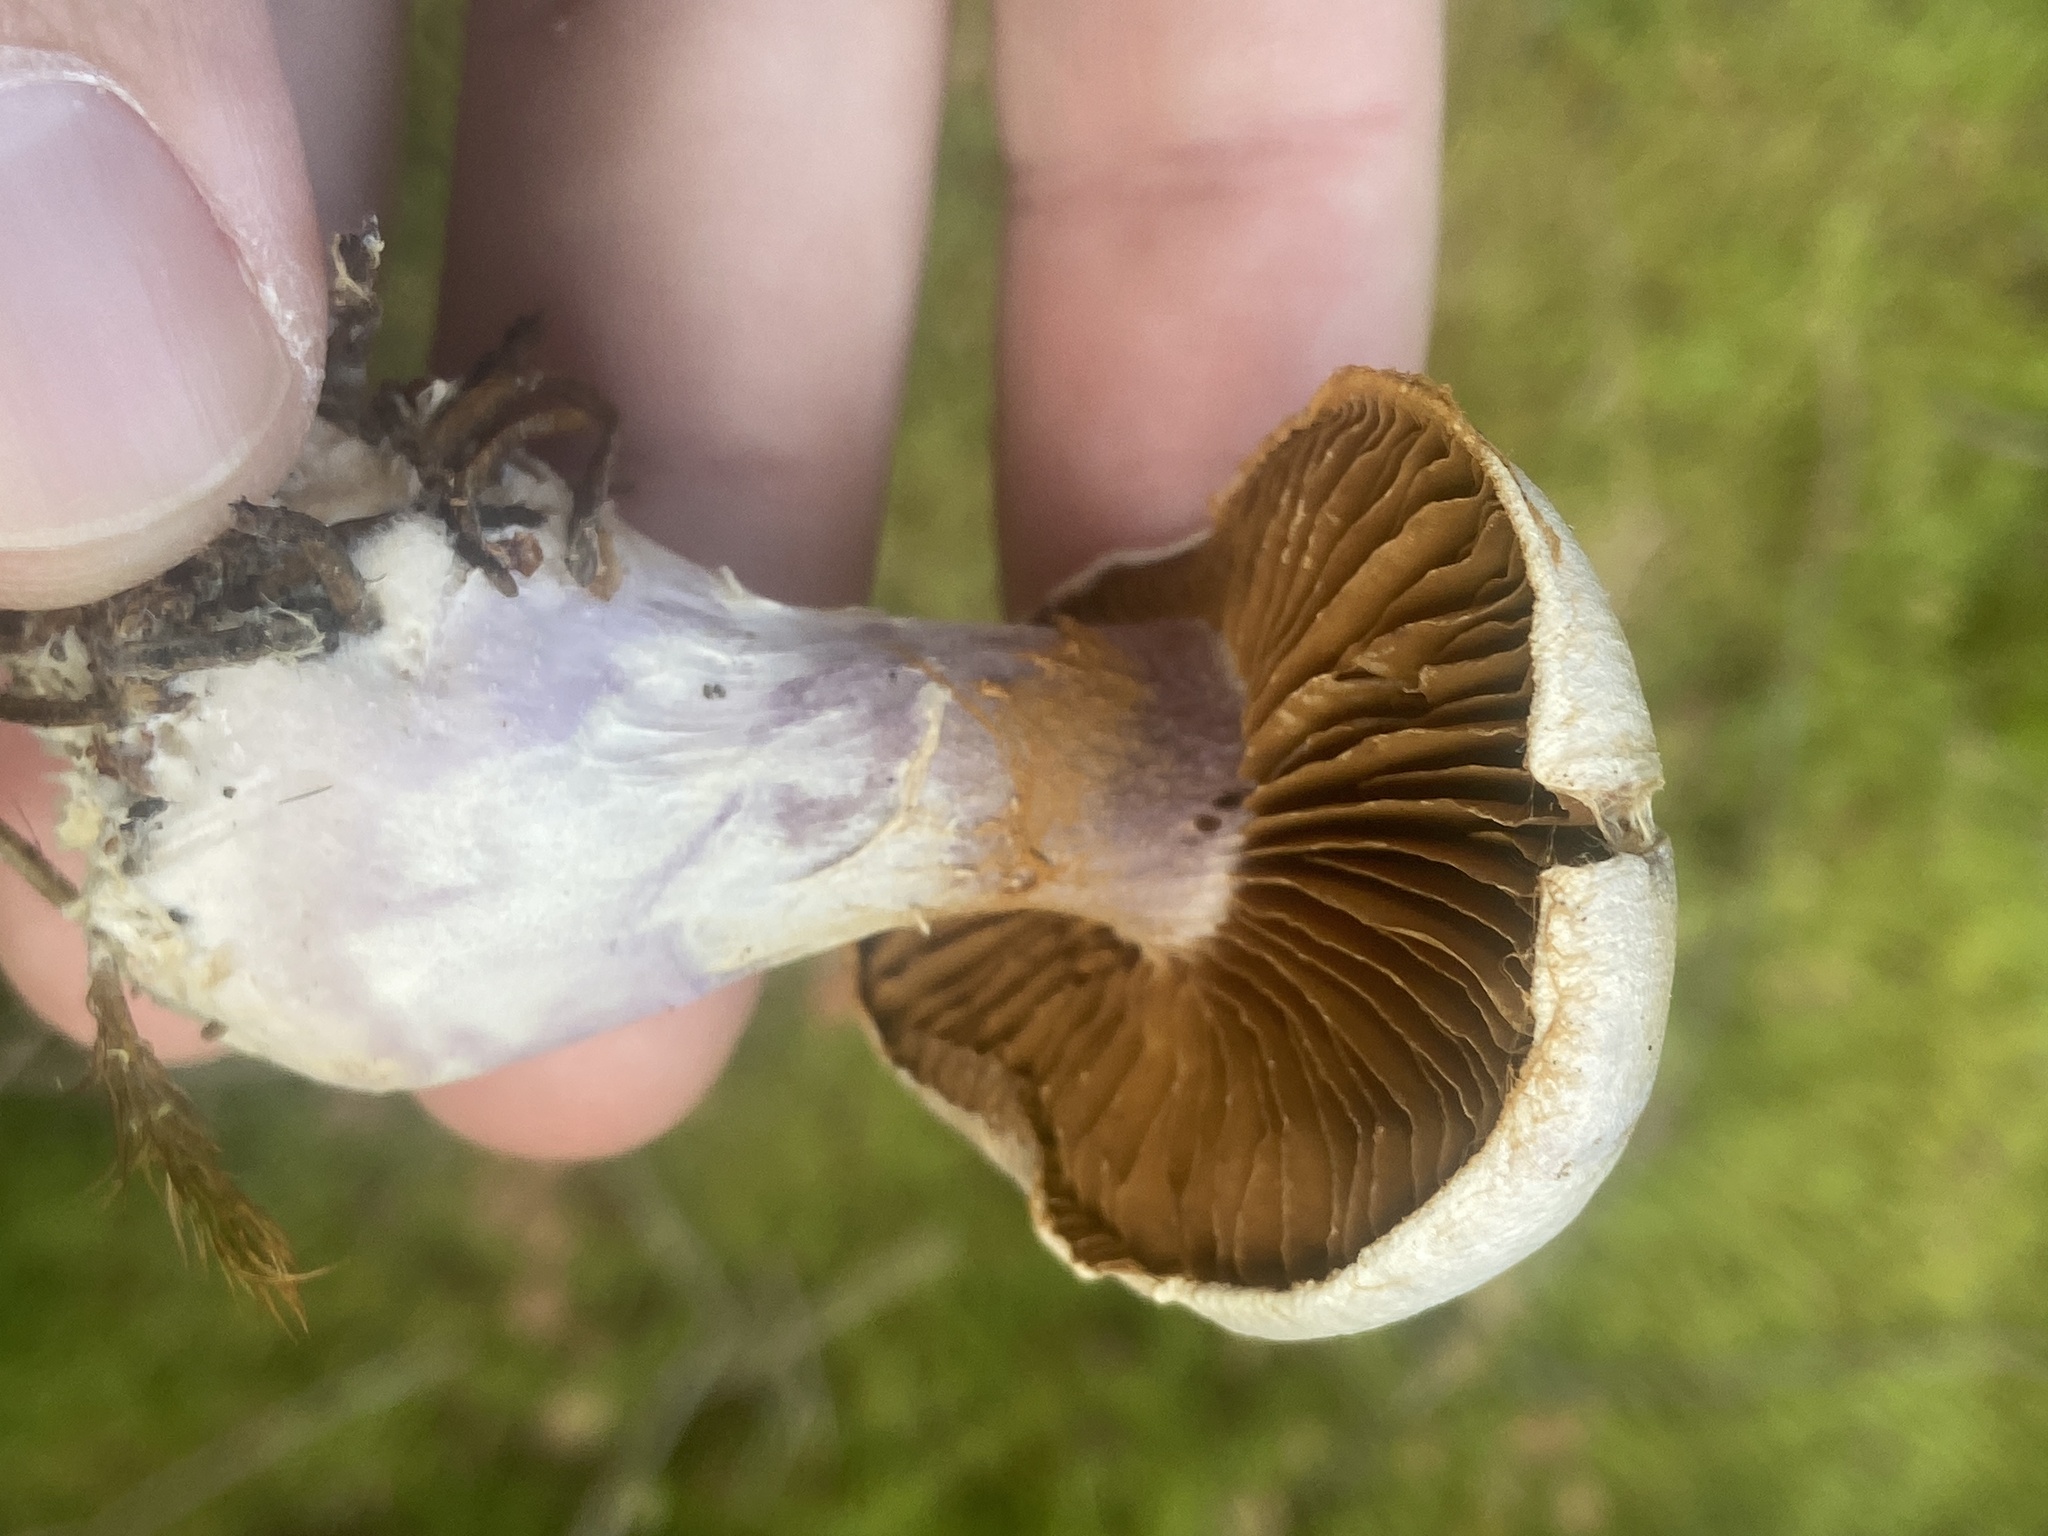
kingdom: Fungi
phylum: Basidiomycota
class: Agaricomycetes
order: Agaricales
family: Cortinariaceae
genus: Cortinarius
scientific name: Cortinarius traganus
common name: Gassy webcap
